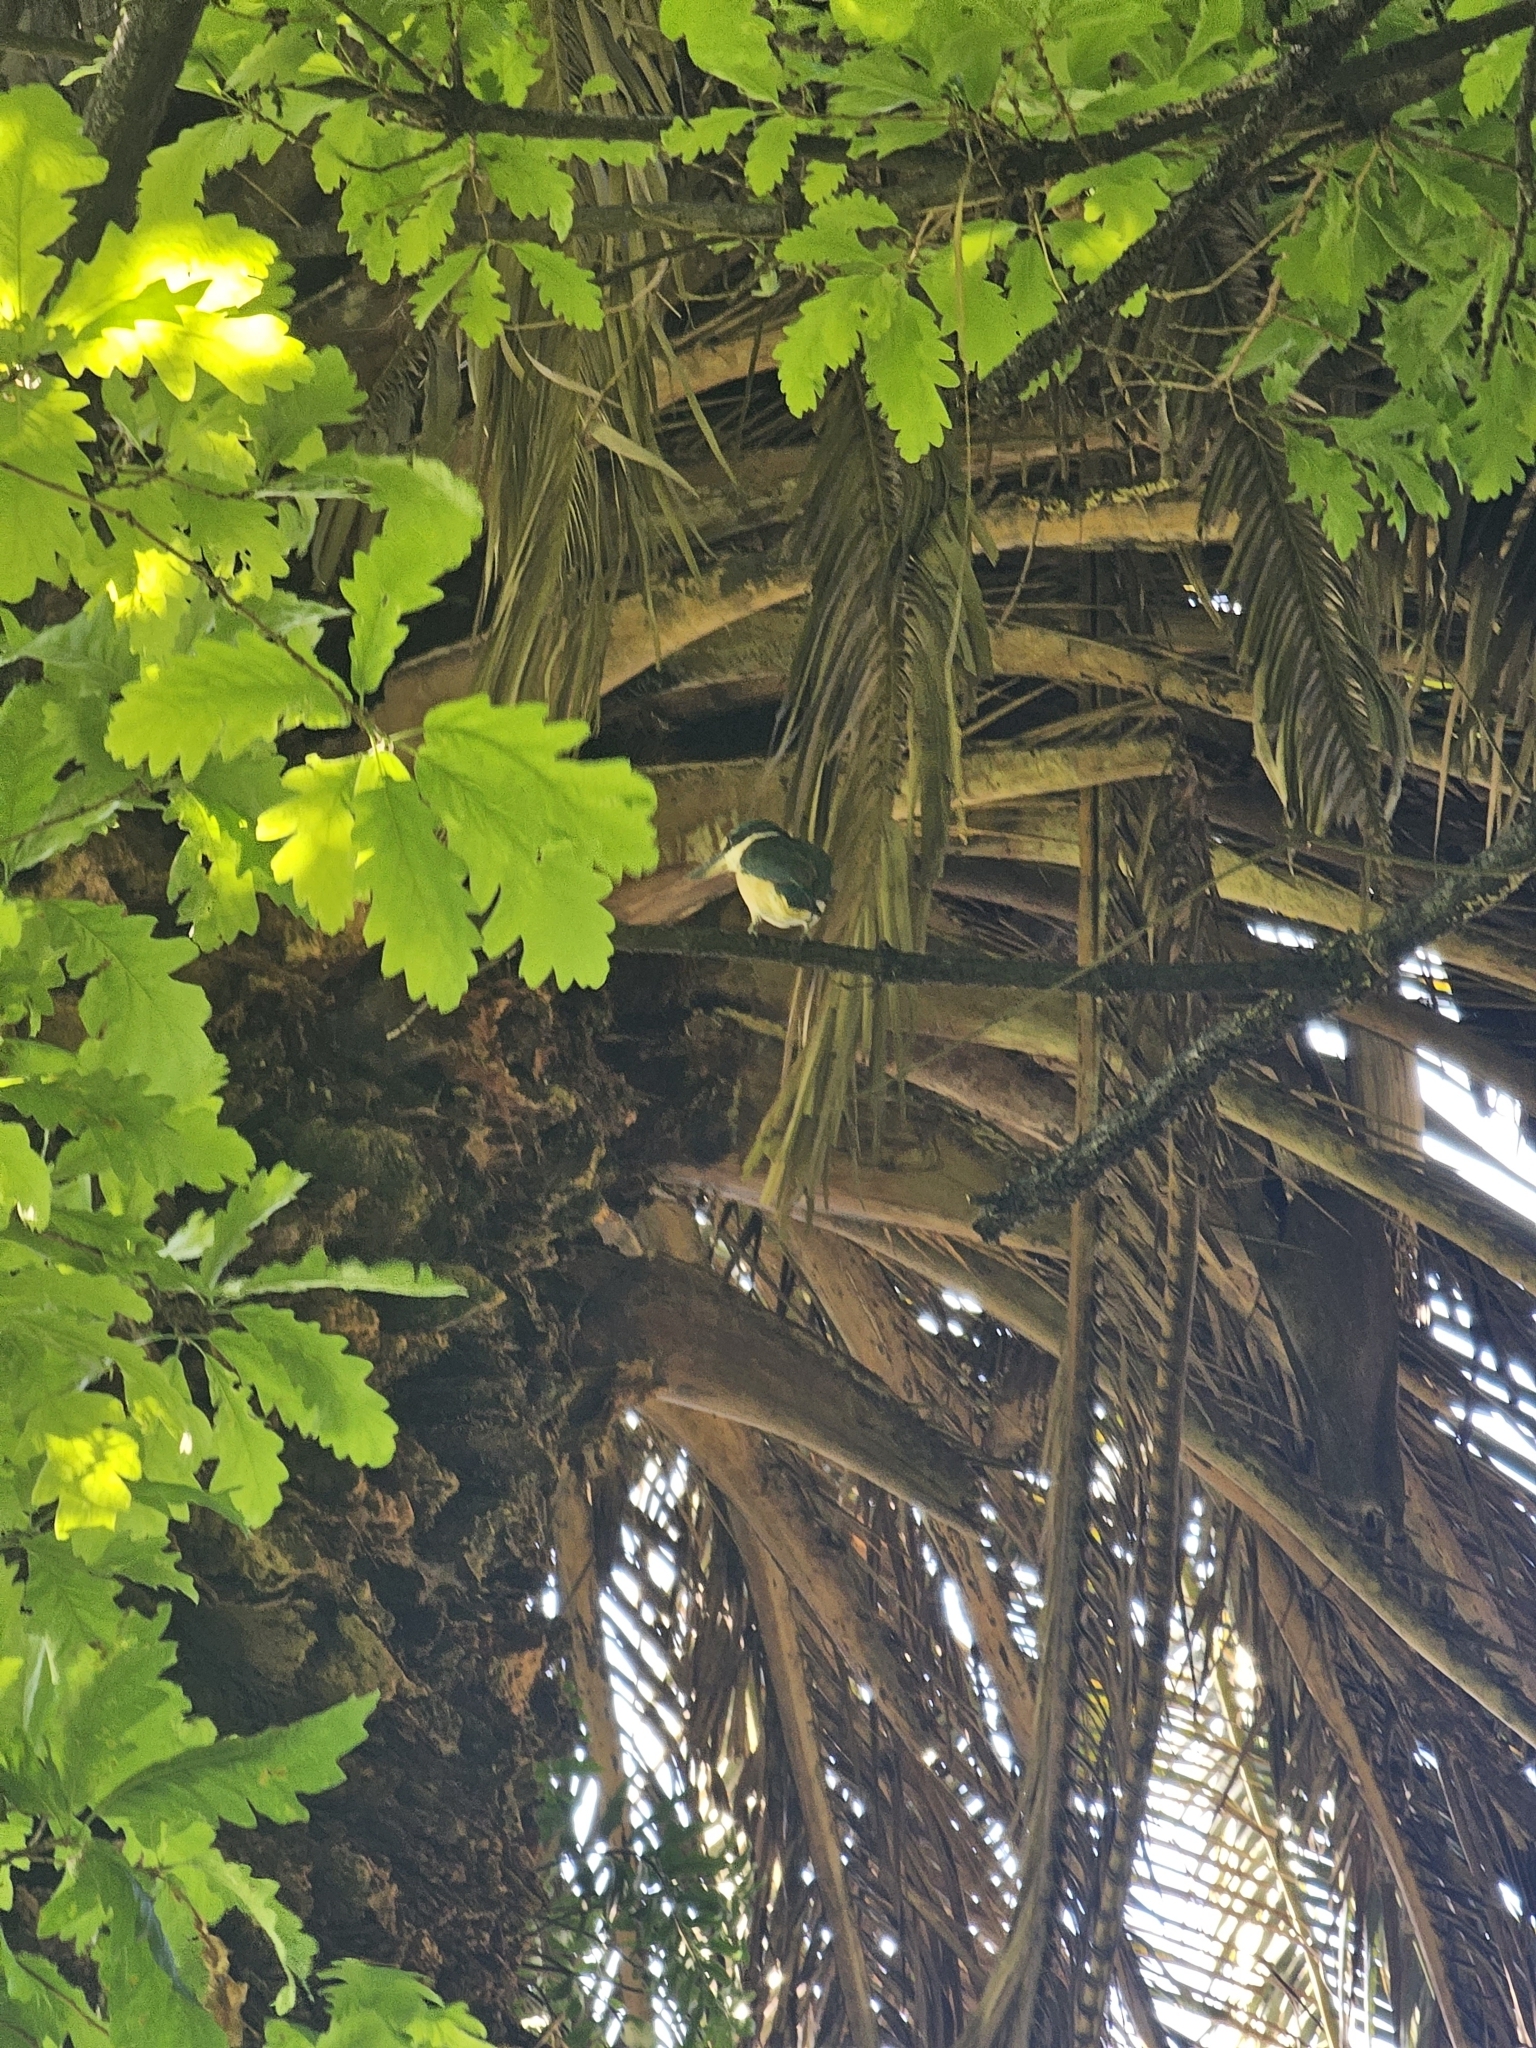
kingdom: Animalia
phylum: Chordata
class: Aves
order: Coraciiformes
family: Alcedinidae
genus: Todiramphus
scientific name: Todiramphus sanctus
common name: Sacred kingfisher
